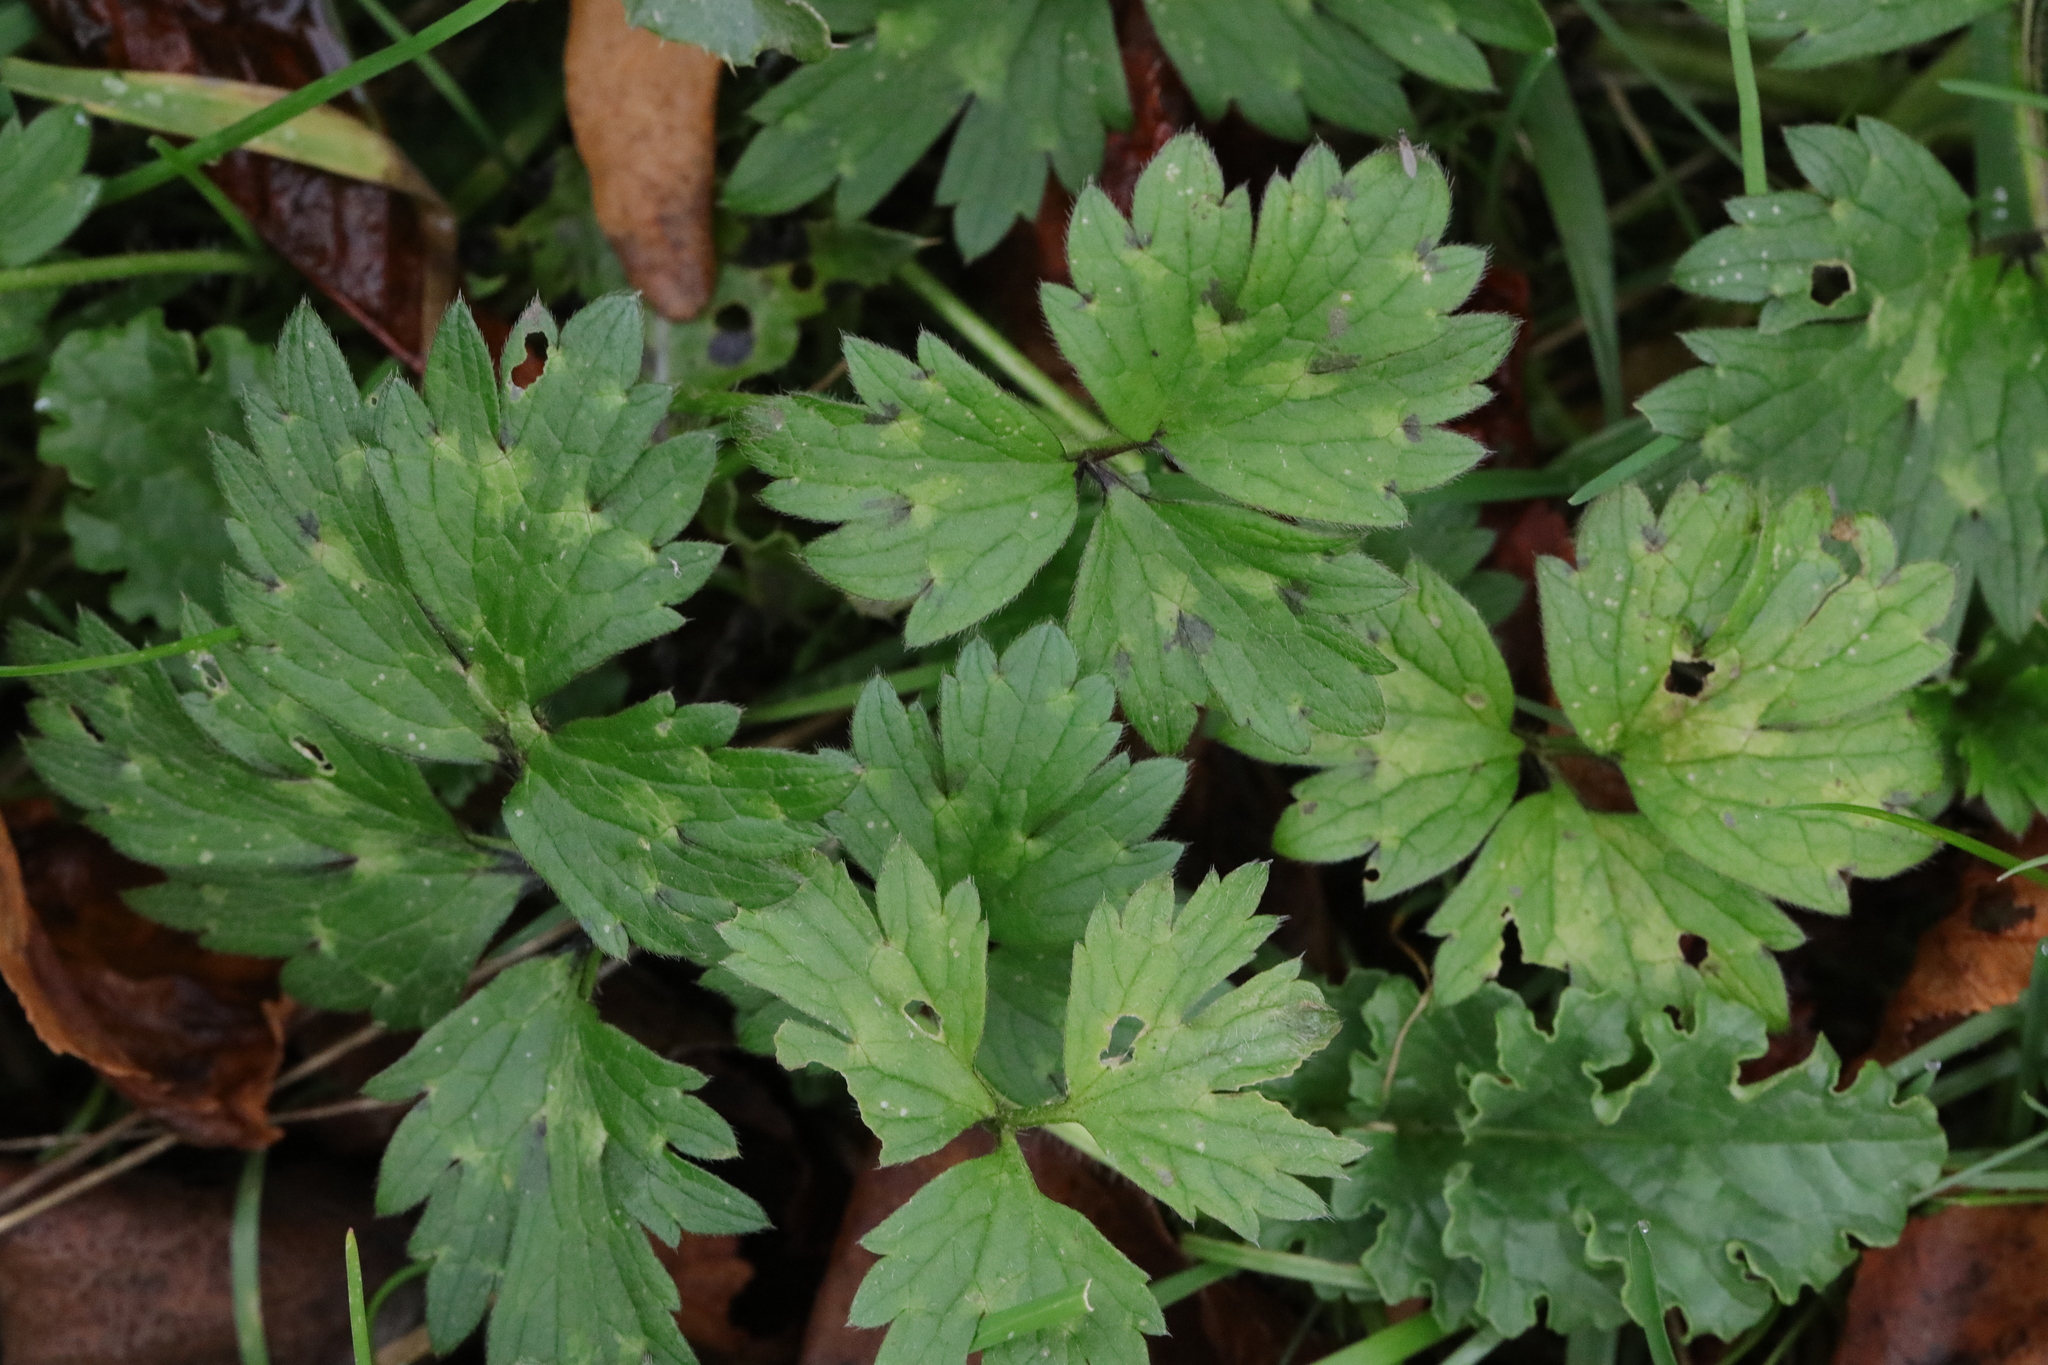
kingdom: Plantae
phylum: Tracheophyta
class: Magnoliopsida
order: Ranunculales
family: Ranunculaceae
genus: Ranunculus
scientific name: Ranunculus repens
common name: Creeping buttercup
